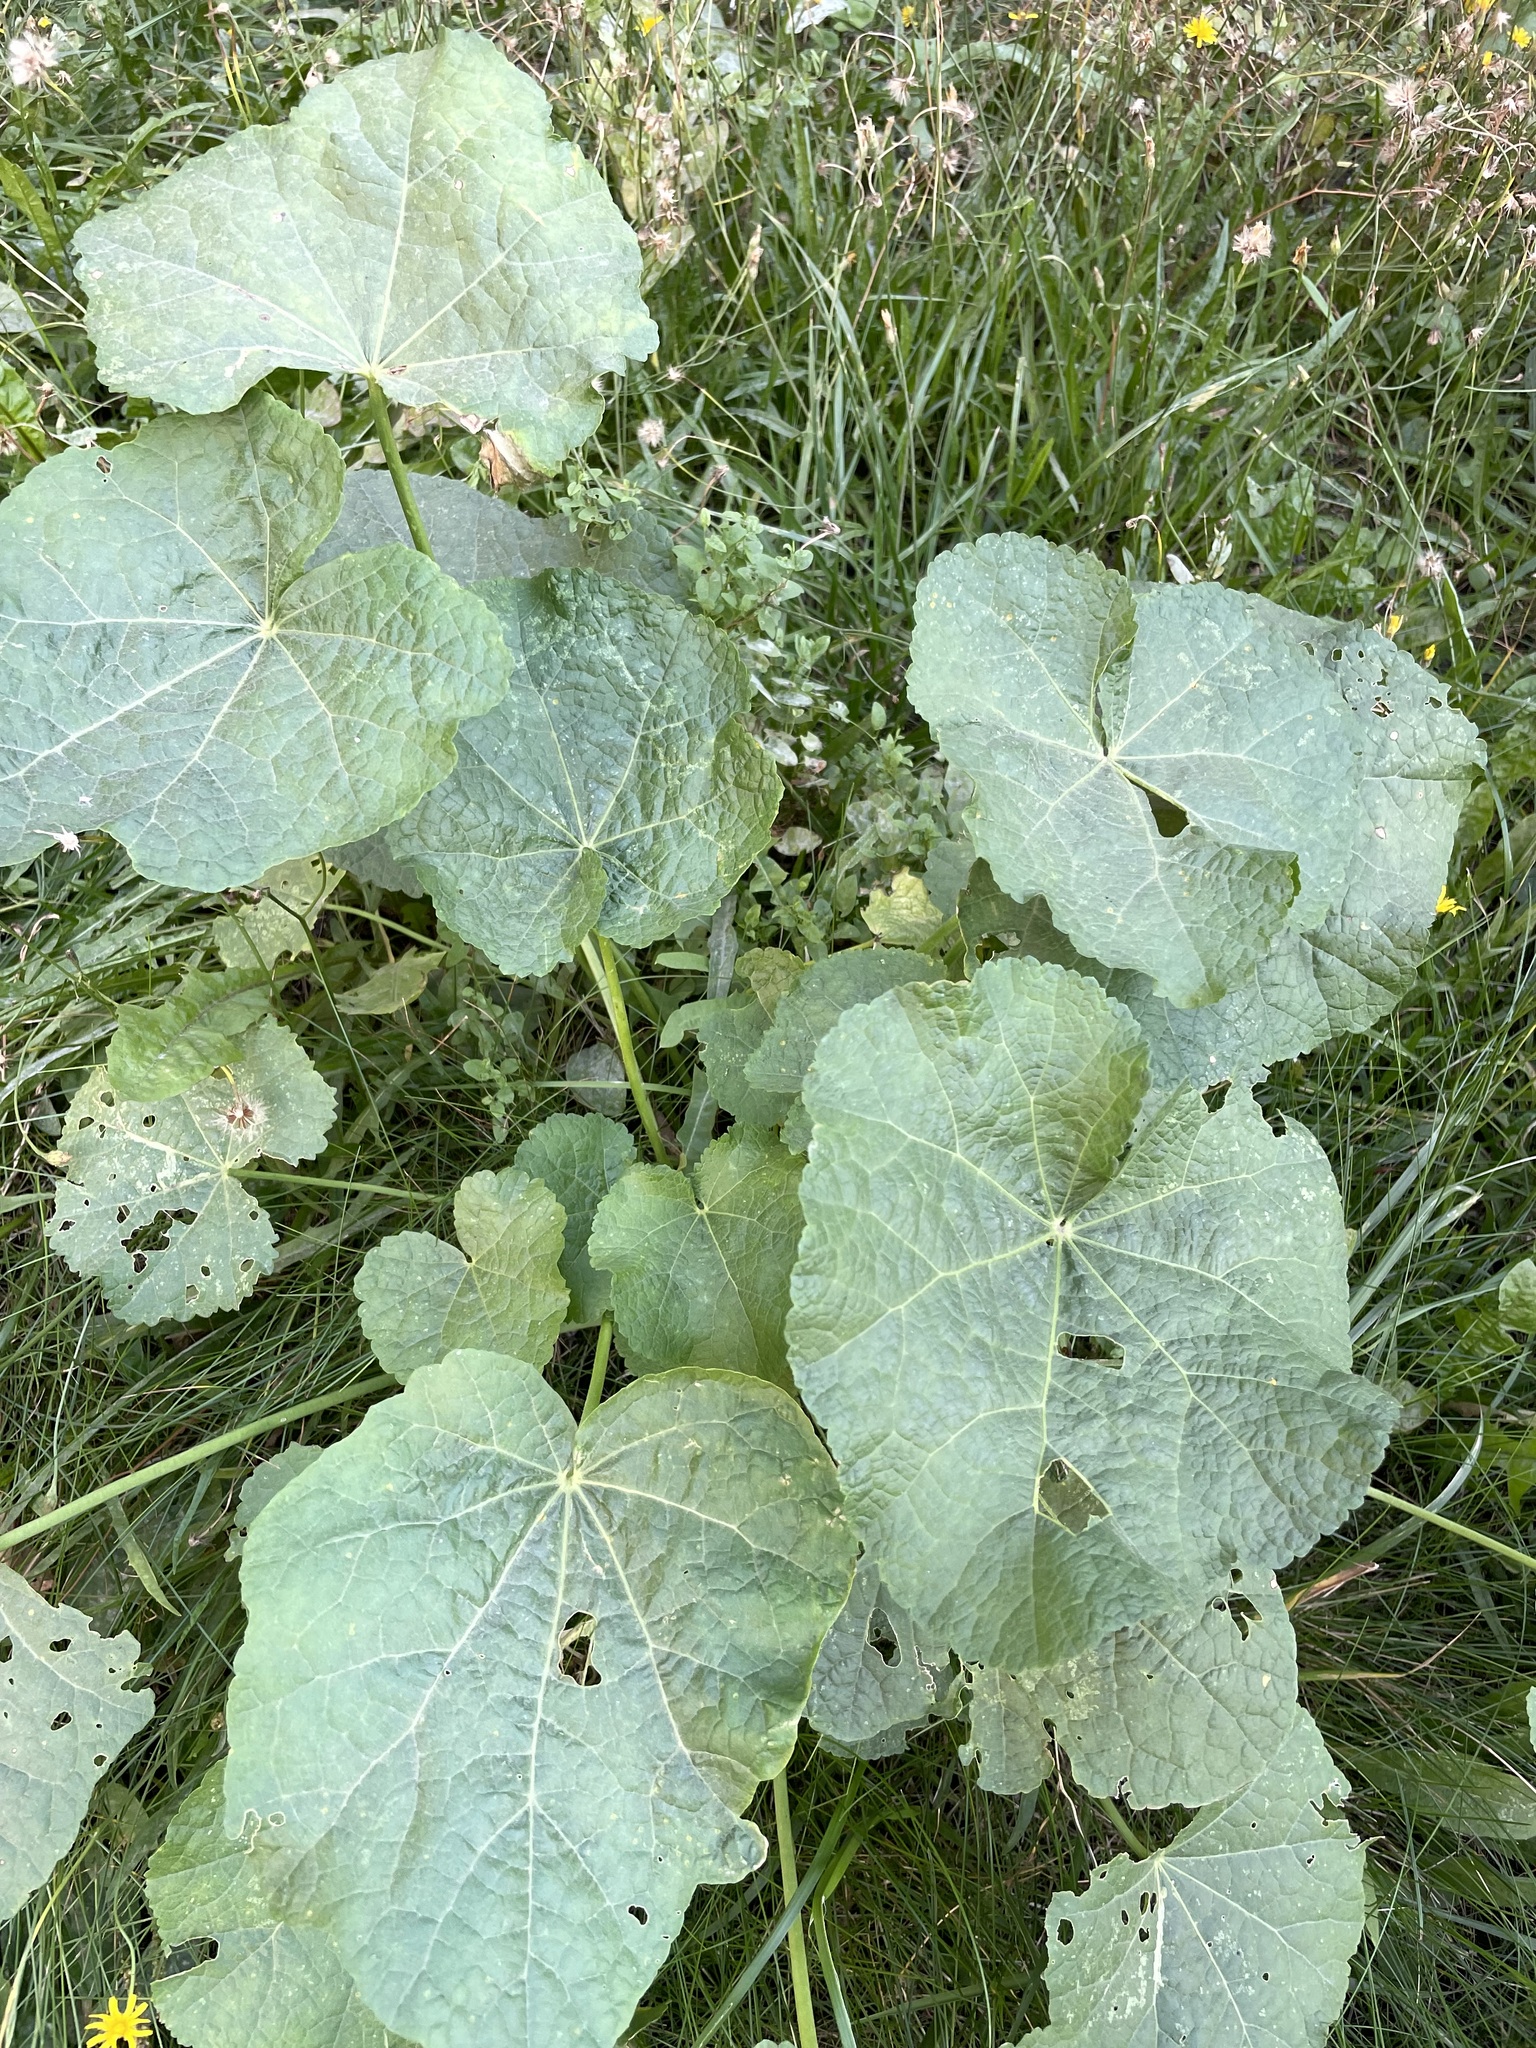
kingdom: Plantae
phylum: Tracheophyta
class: Magnoliopsida
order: Malvales
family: Malvaceae
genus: Alcea
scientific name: Alcea rosea
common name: Hollyhock
